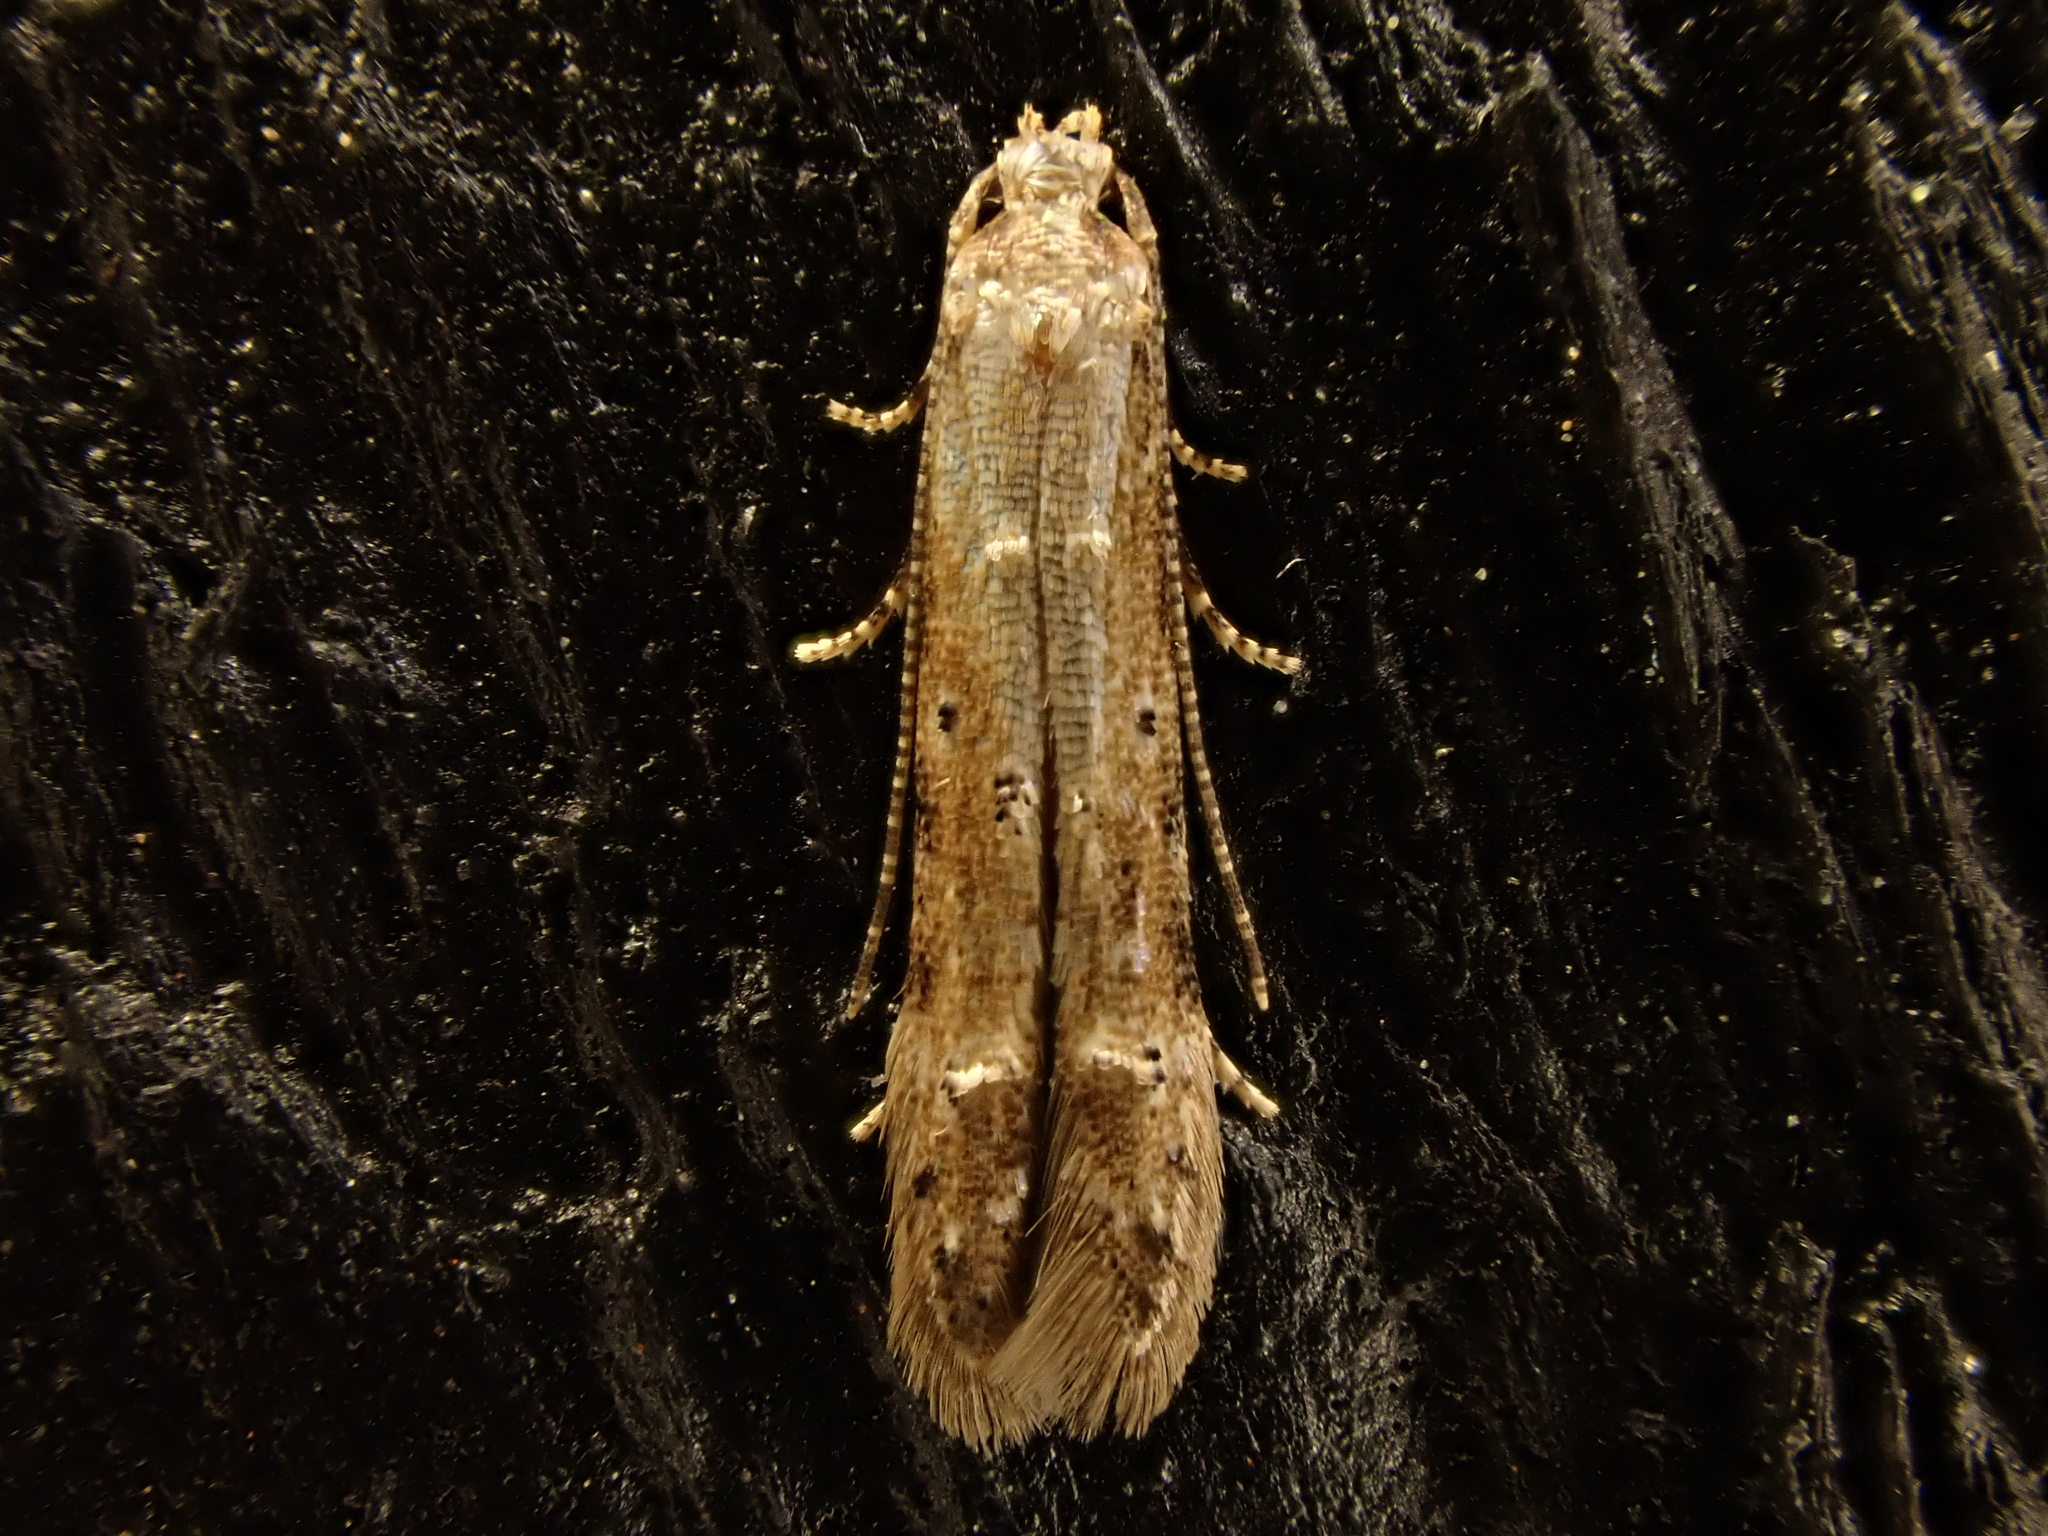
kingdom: Animalia
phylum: Arthropoda
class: Insecta
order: Lepidoptera
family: Elachistidae
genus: Microcolona
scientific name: Microcolona limodes
